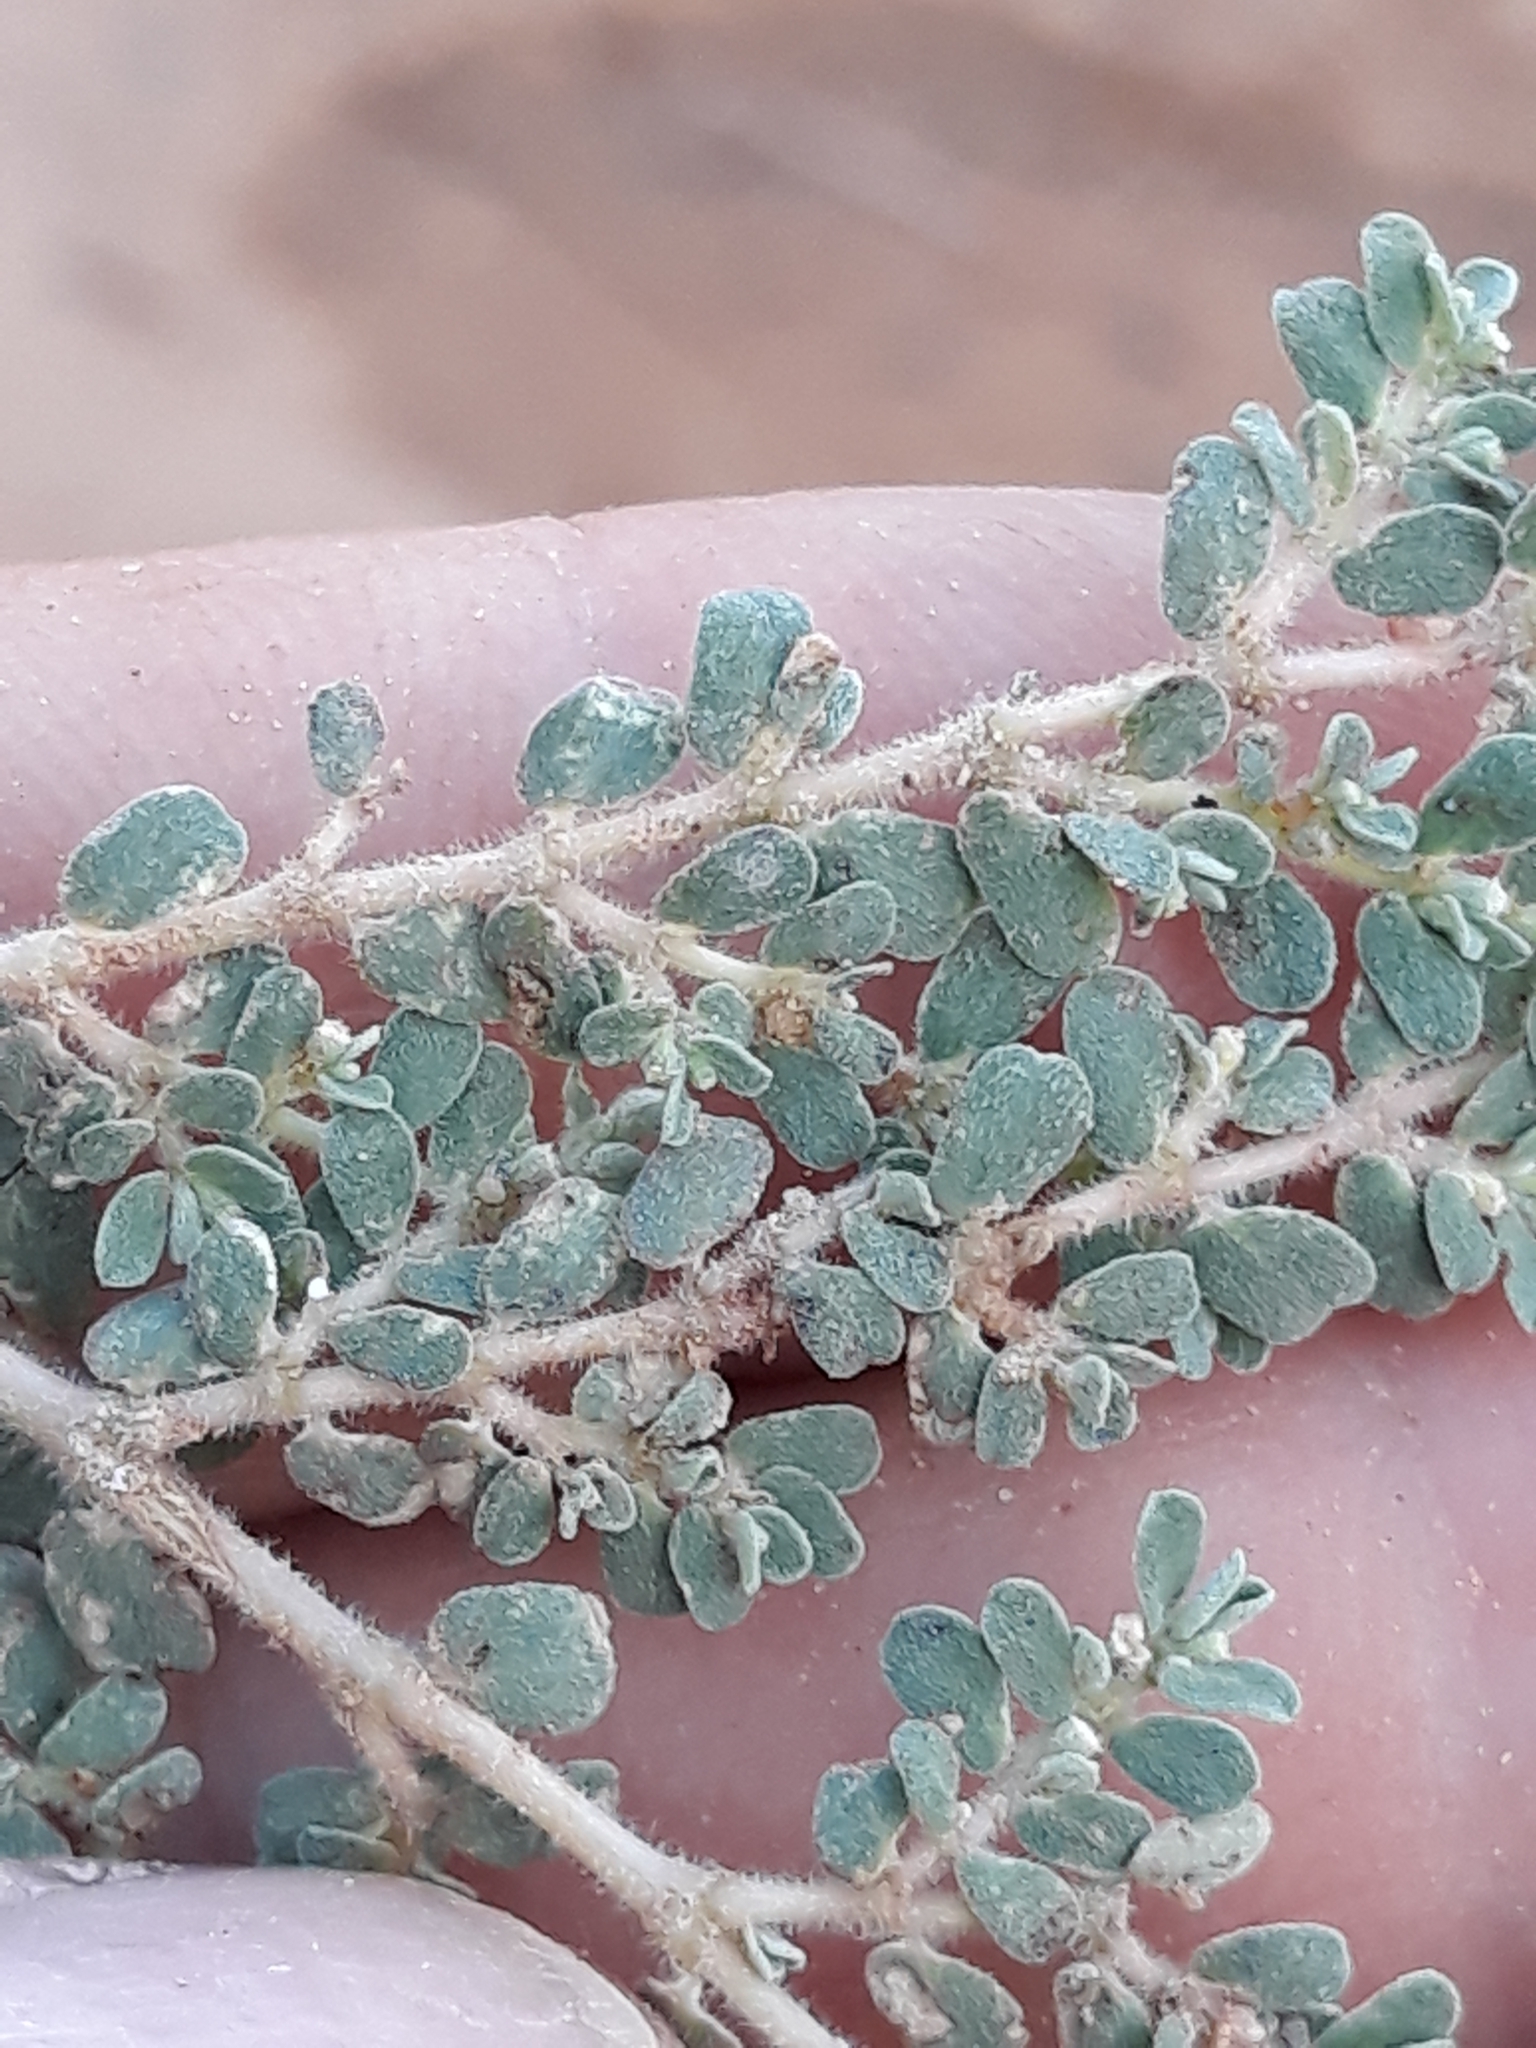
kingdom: Plantae
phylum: Tracheophyta
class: Magnoliopsida
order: Malpighiales
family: Euphorbiaceae
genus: Euphorbia
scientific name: Euphorbia granulata
